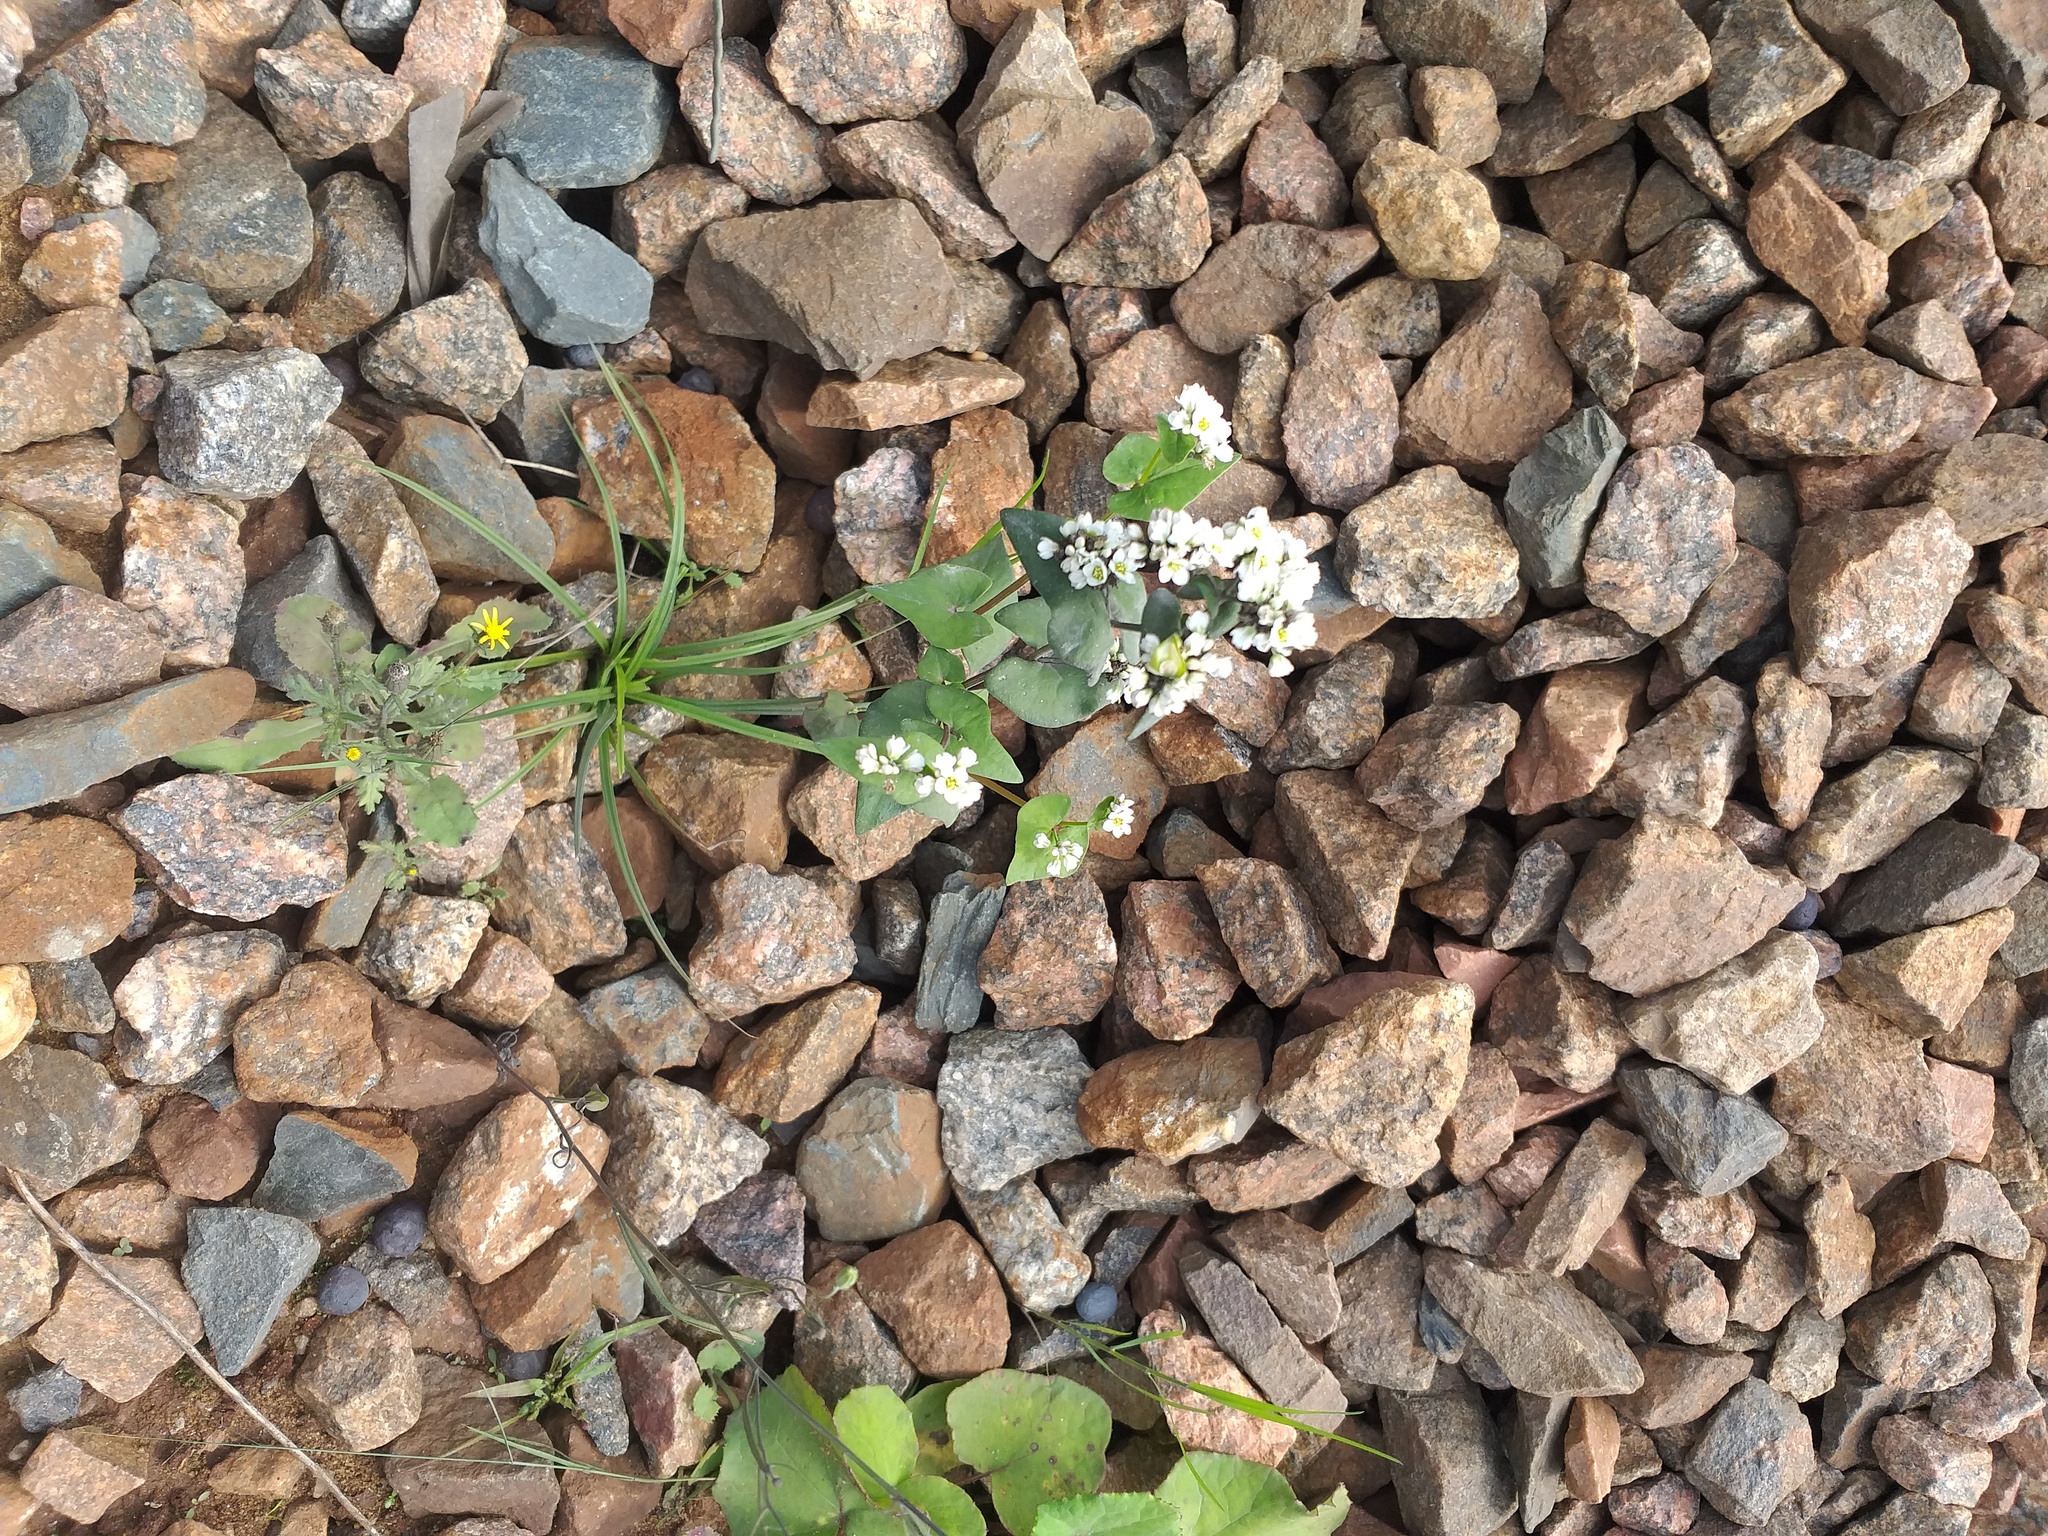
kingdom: Plantae
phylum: Tracheophyta
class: Magnoliopsida
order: Caryophyllales
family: Polygonaceae
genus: Fagopyrum
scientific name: Fagopyrum esculentum
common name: Buckwheat
